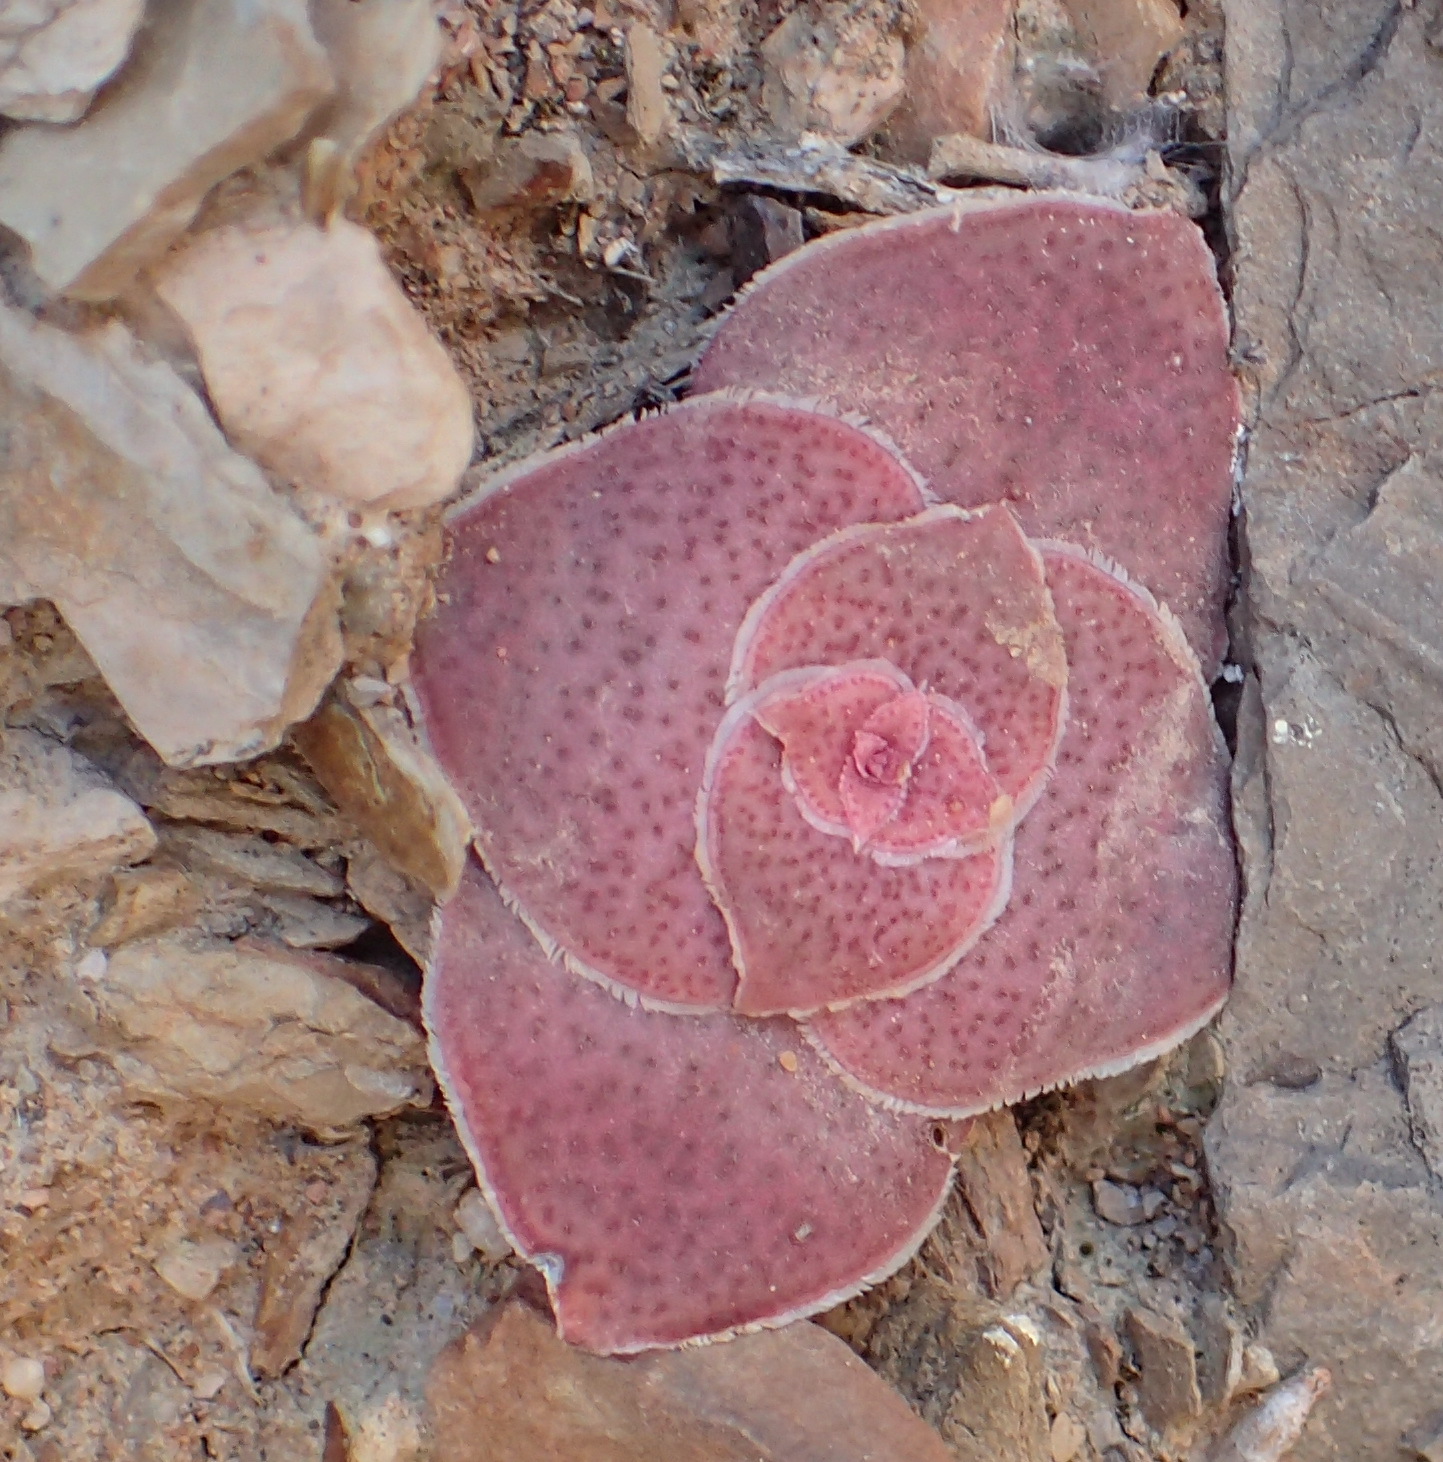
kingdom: Plantae
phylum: Tracheophyta
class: Magnoliopsida
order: Saxifragales
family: Crassulaceae
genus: Crassula
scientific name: Crassula pseudohemisphaerica
